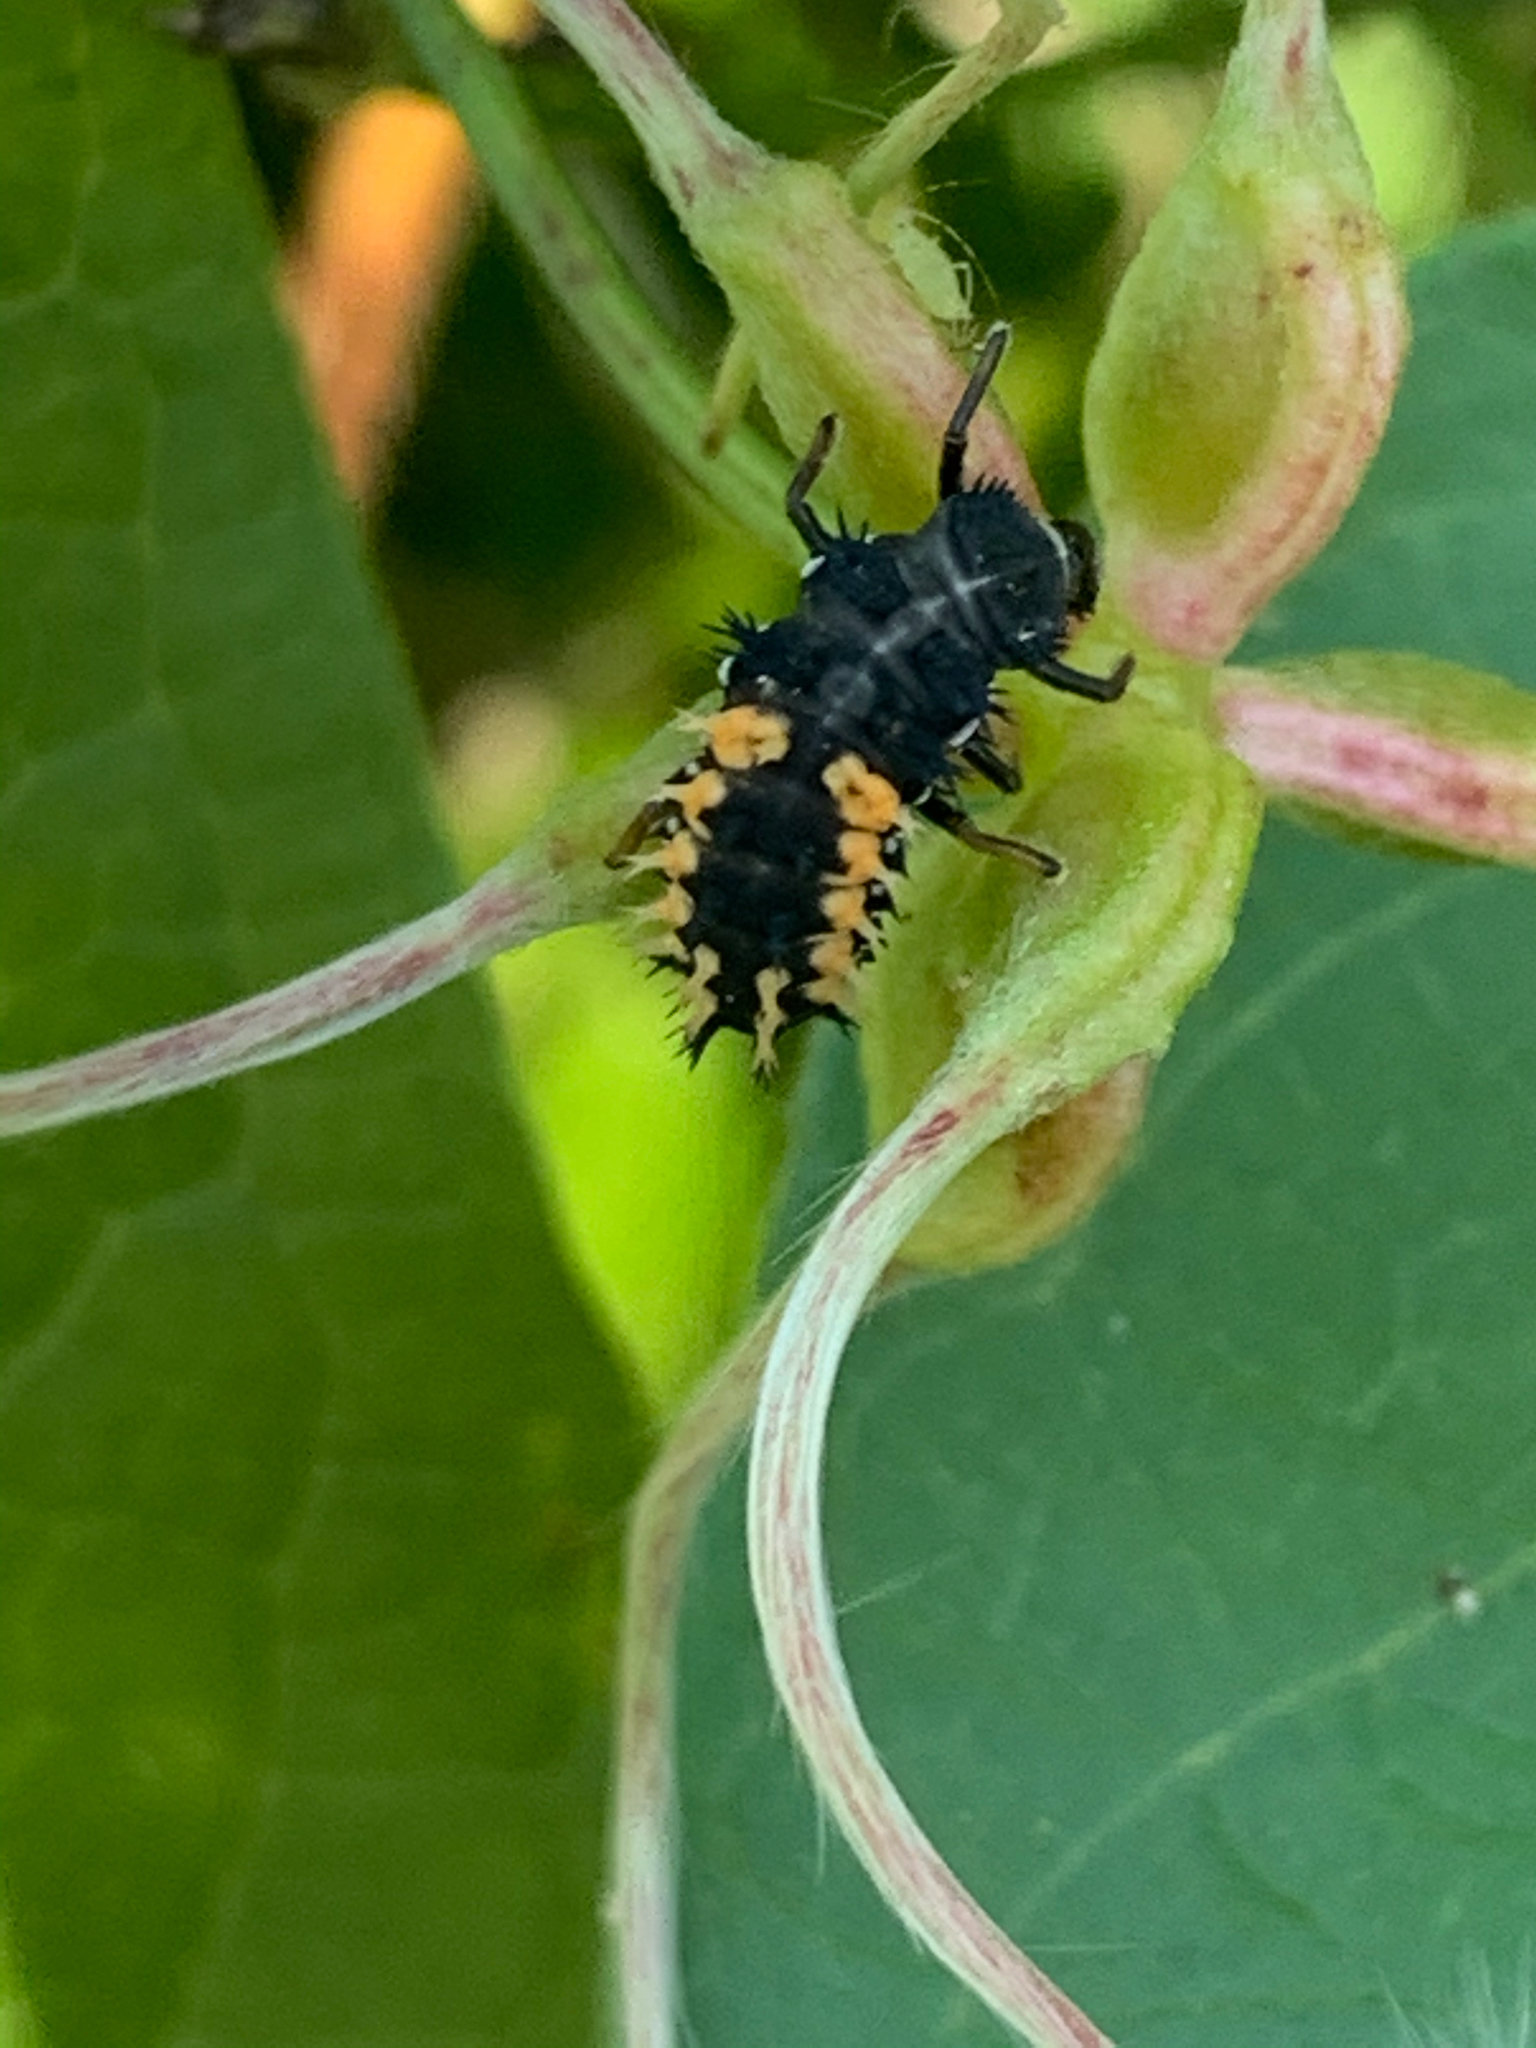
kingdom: Animalia
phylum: Arthropoda
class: Insecta
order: Coleoptera
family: Coccinellidae
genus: Harmonia
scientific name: Harmonia axyridis
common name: Harlequin ladybird
